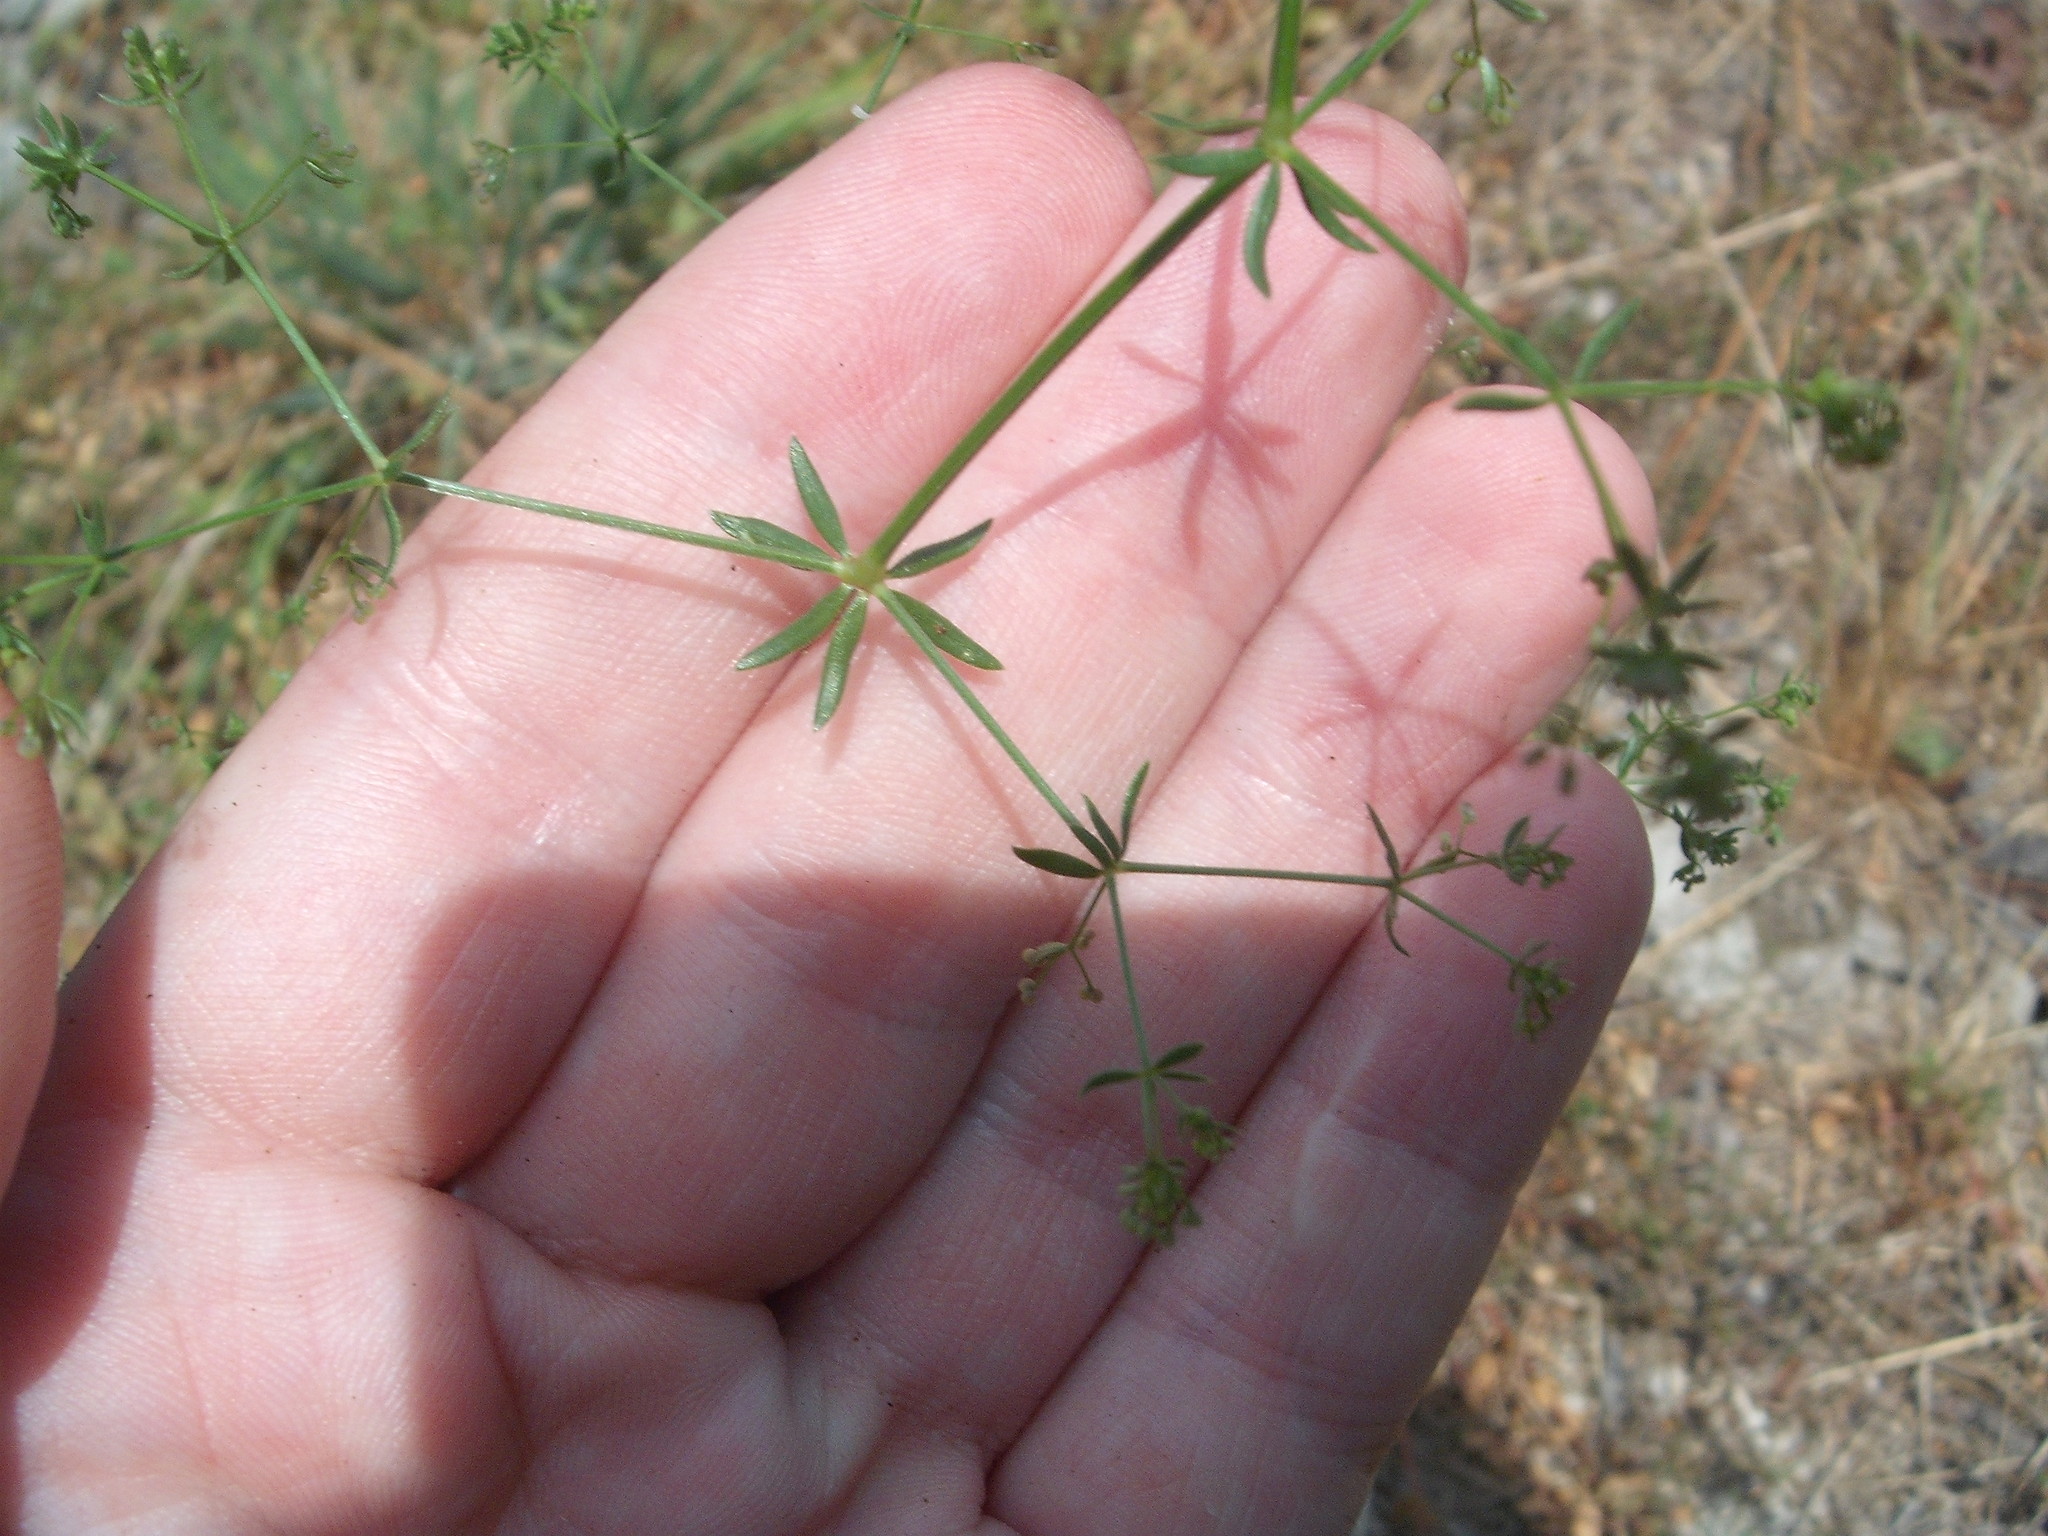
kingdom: Plantae
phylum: Tracheophyta
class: Magnoliopsida
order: Gentianales
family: Rubiaceae
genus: Galium
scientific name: Galium divaricatum
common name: Lamarck's bedstraw
